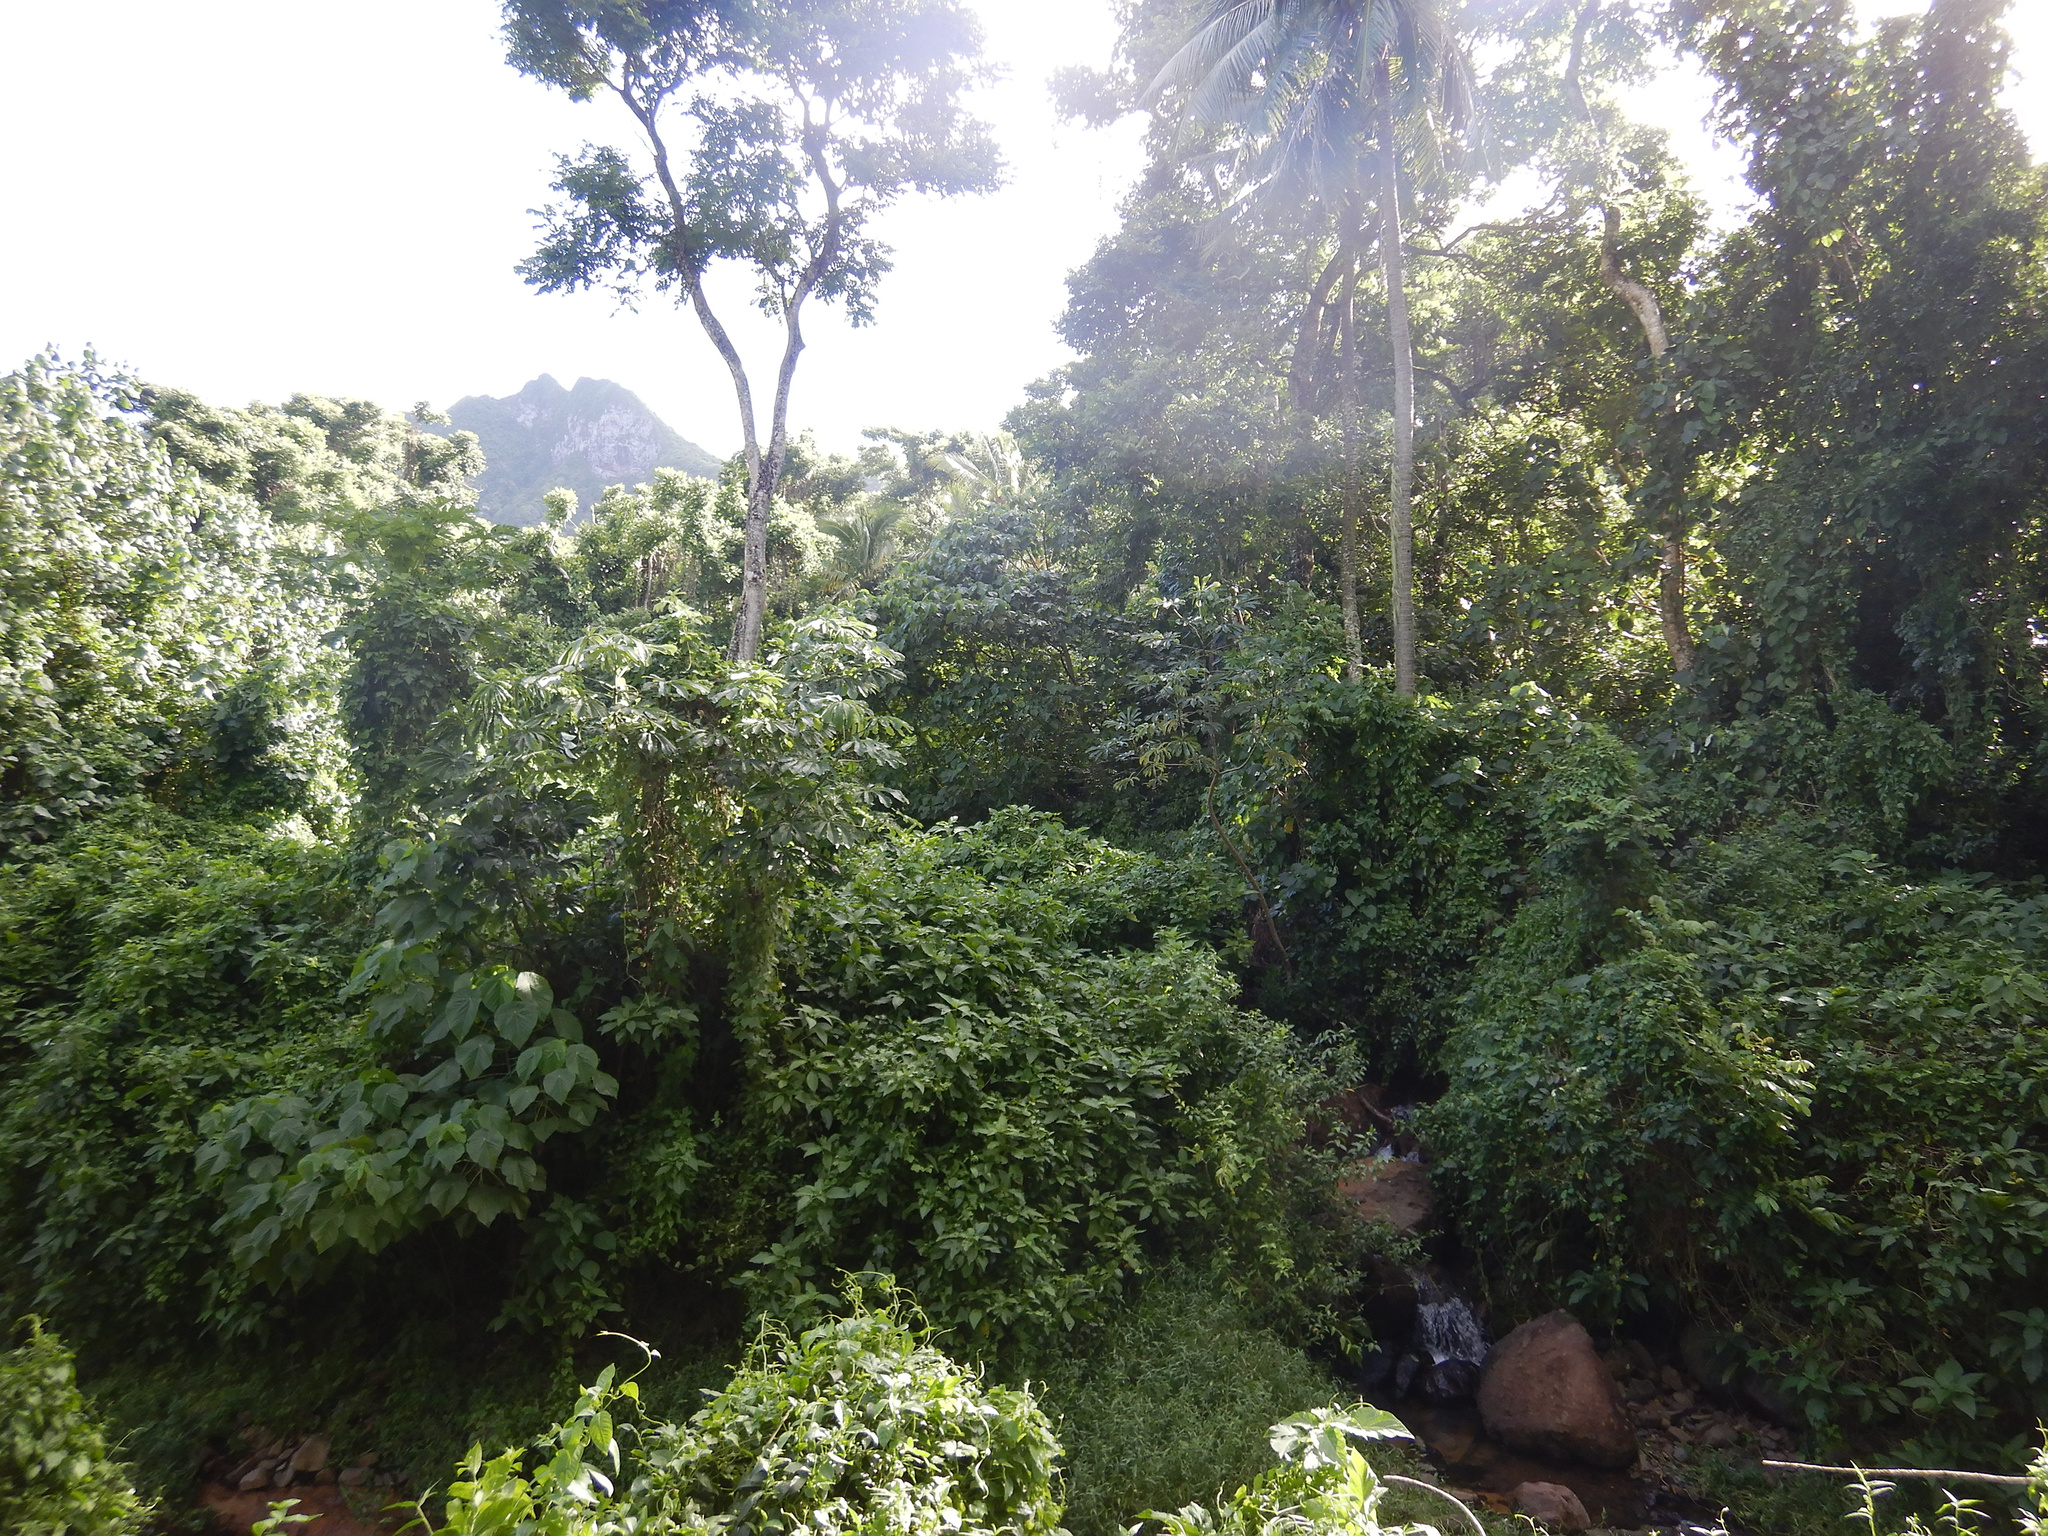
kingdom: Plantae
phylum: Tracheophyta
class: Magnoliopsida
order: Rosales
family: Urticaceae
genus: Cecropia
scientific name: Cecropia pachystachya
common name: Ambay pumpwood
